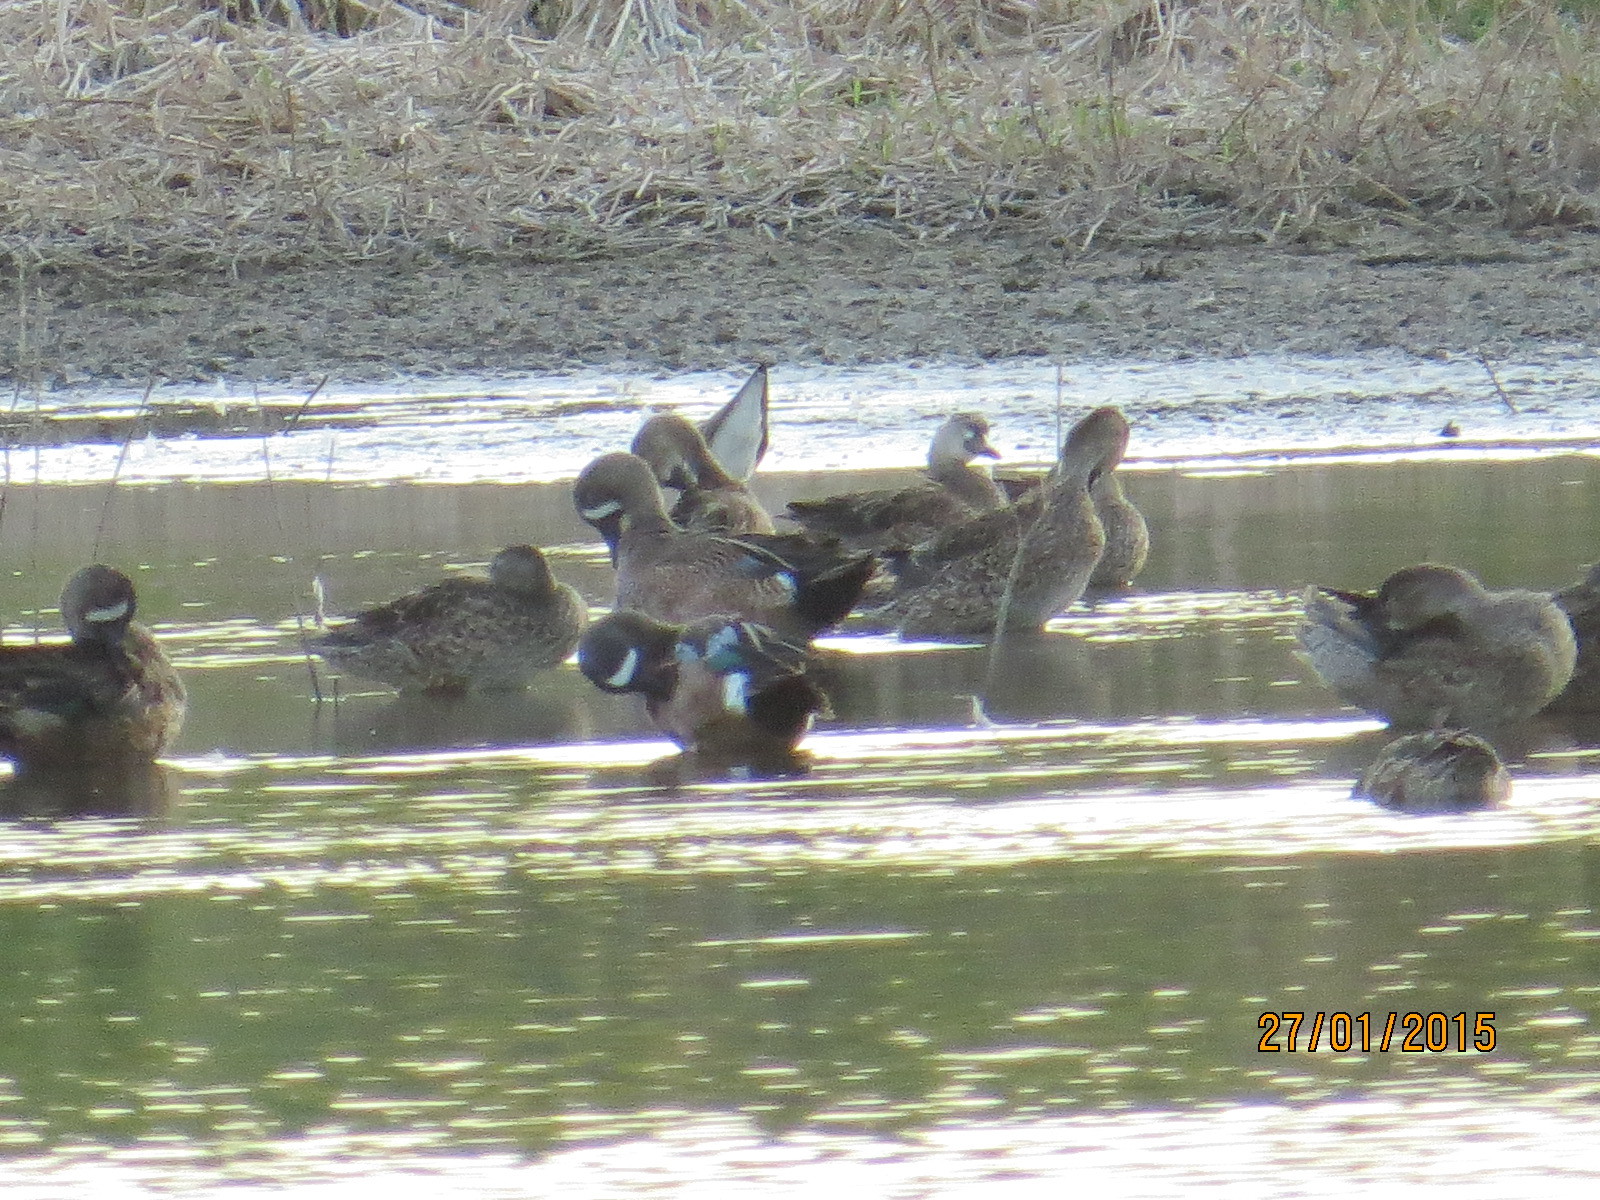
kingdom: Animalia
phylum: Chordata
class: Aves
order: Anseriformes
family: Anatidae
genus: Spatula
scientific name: Spatula discors
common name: Blue-winged teal
